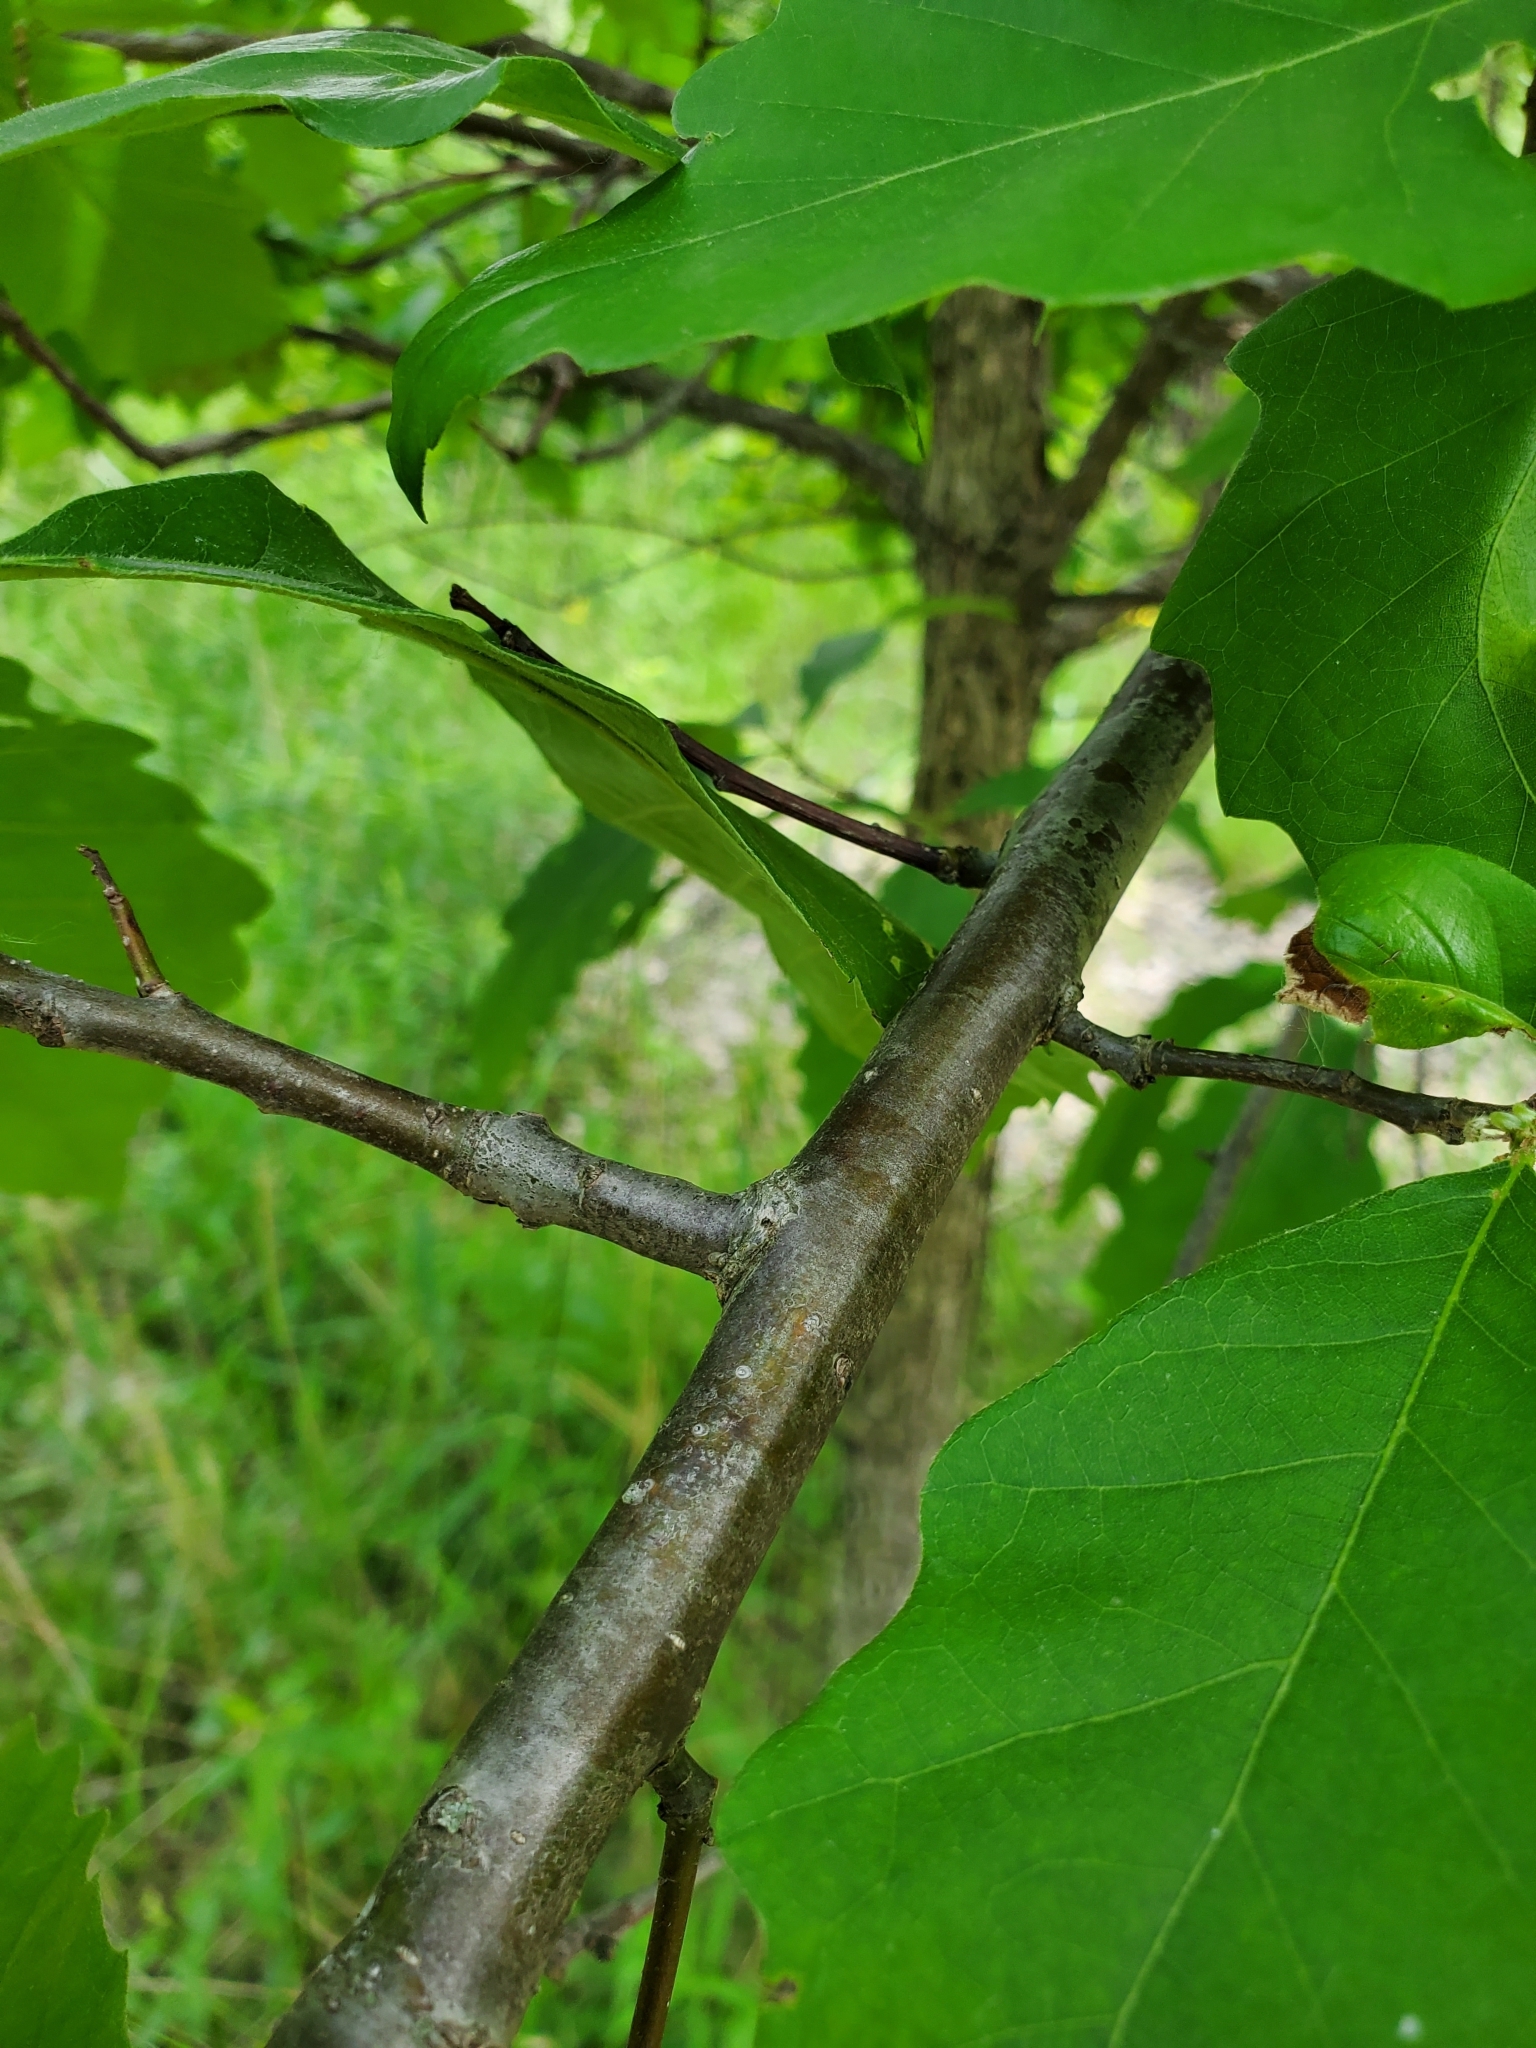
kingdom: Plantae
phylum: Tracheophyta
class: Magnoliopsida
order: Fagales
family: Fagaceae
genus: Quercus
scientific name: Quercus bicolor
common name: Swamp white oak
